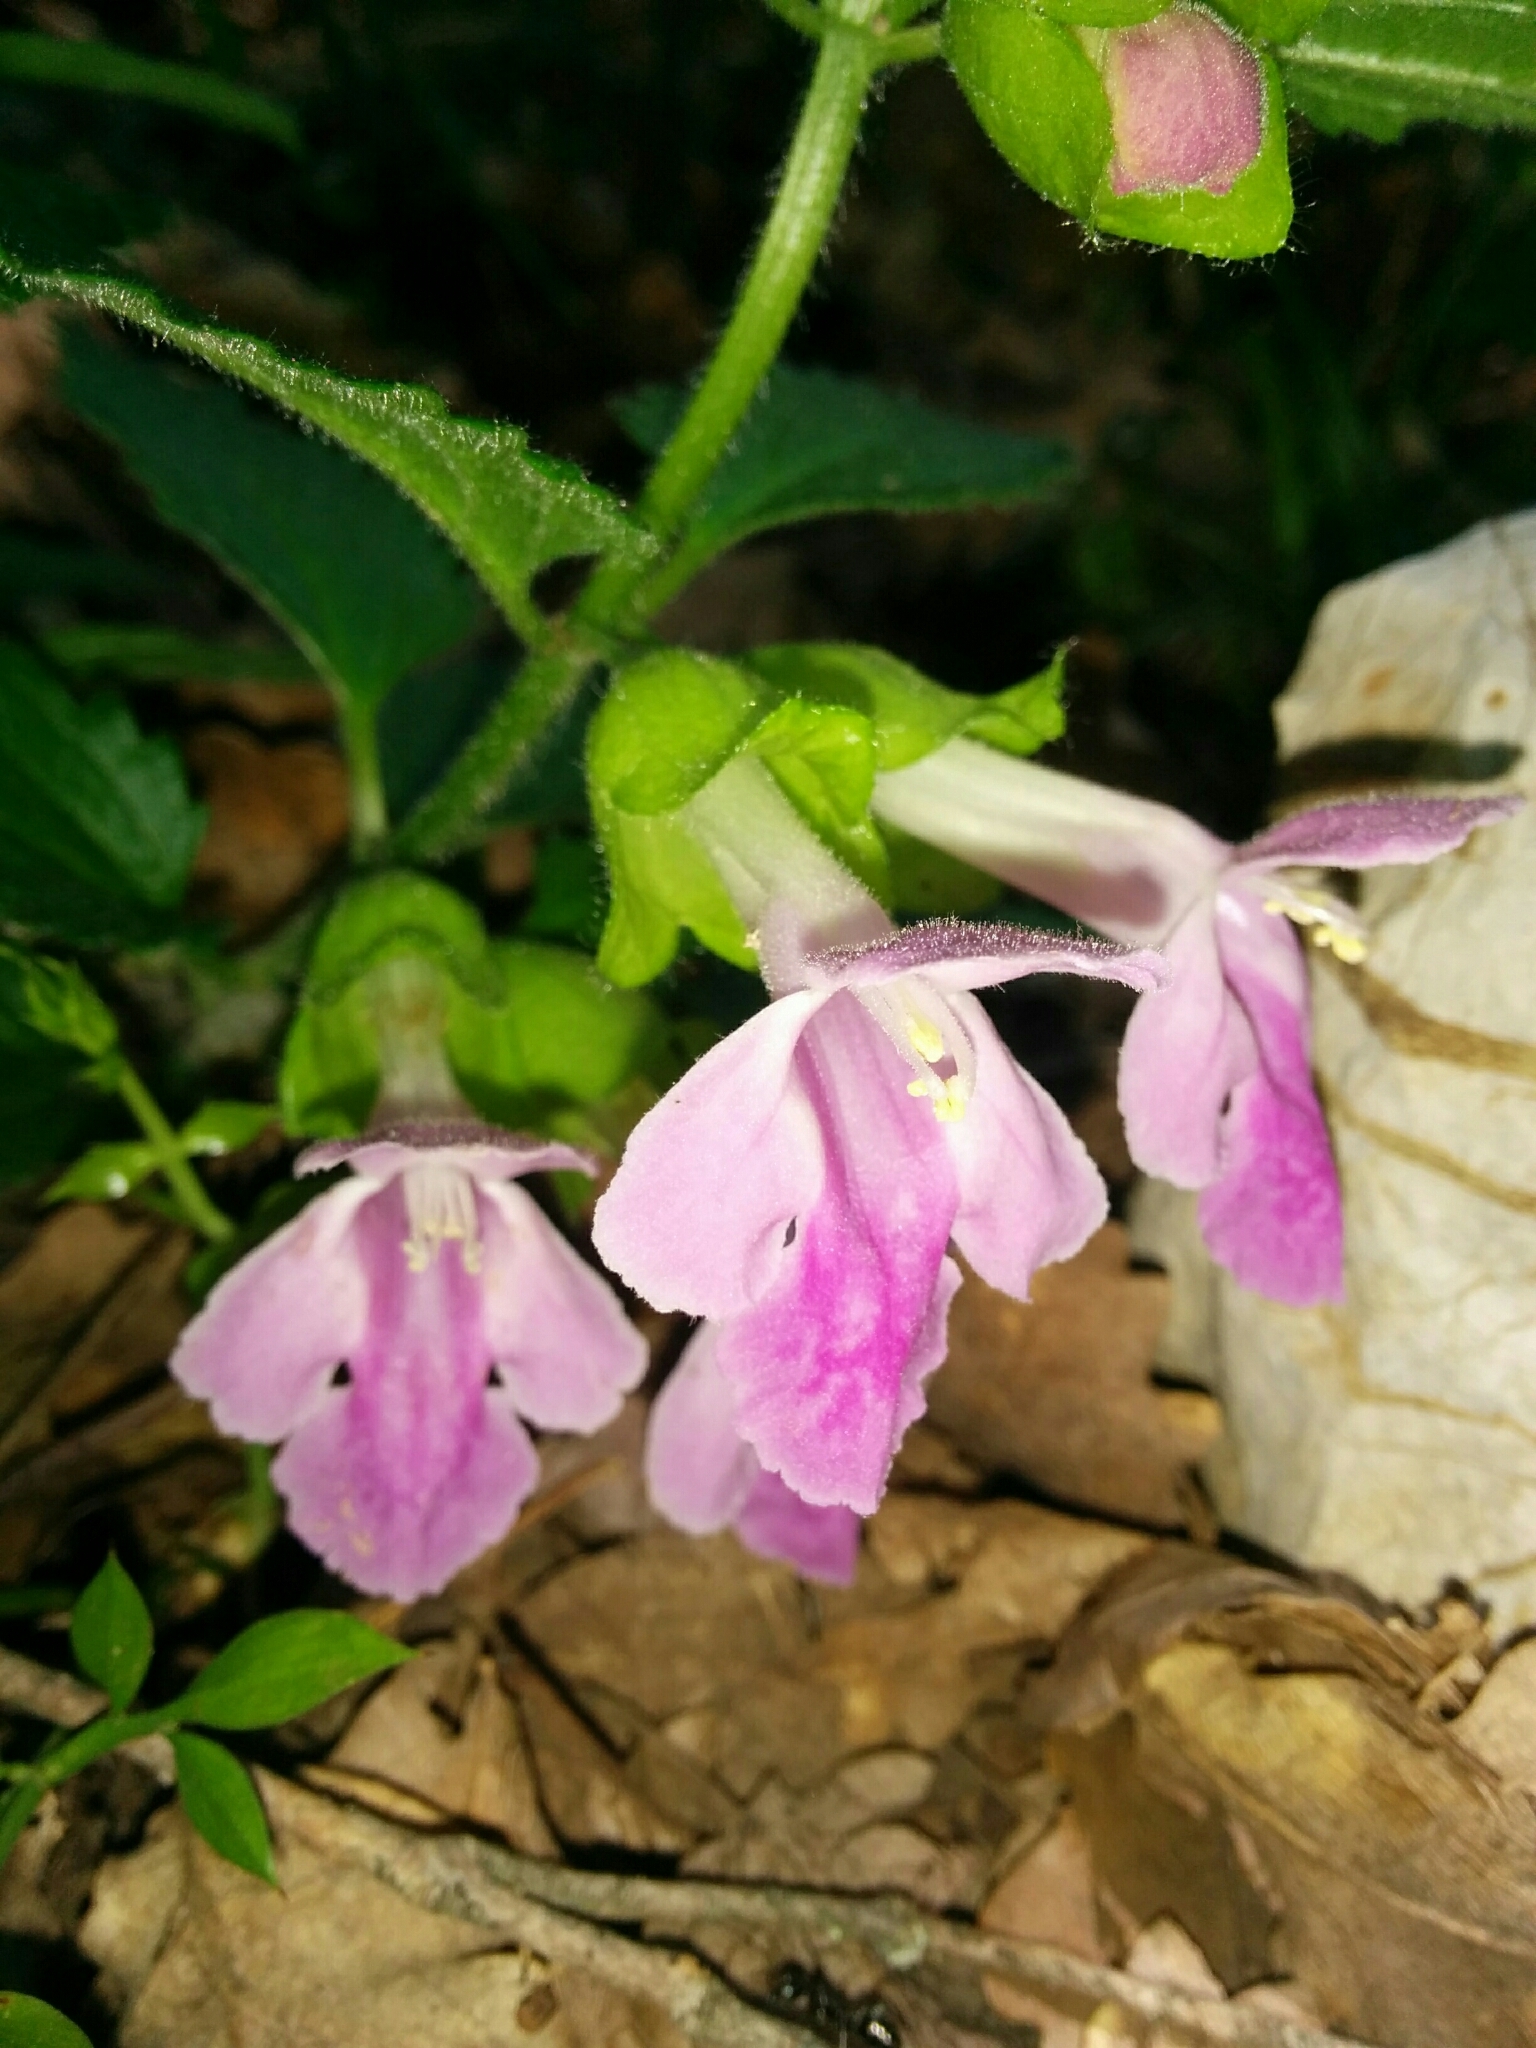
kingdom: Plantae
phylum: Tracheophyta
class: Magnoliopsida
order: Lamiales
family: Lamiaceae
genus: Melittis
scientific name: Melittis melissophyllum
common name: Bastard balm
